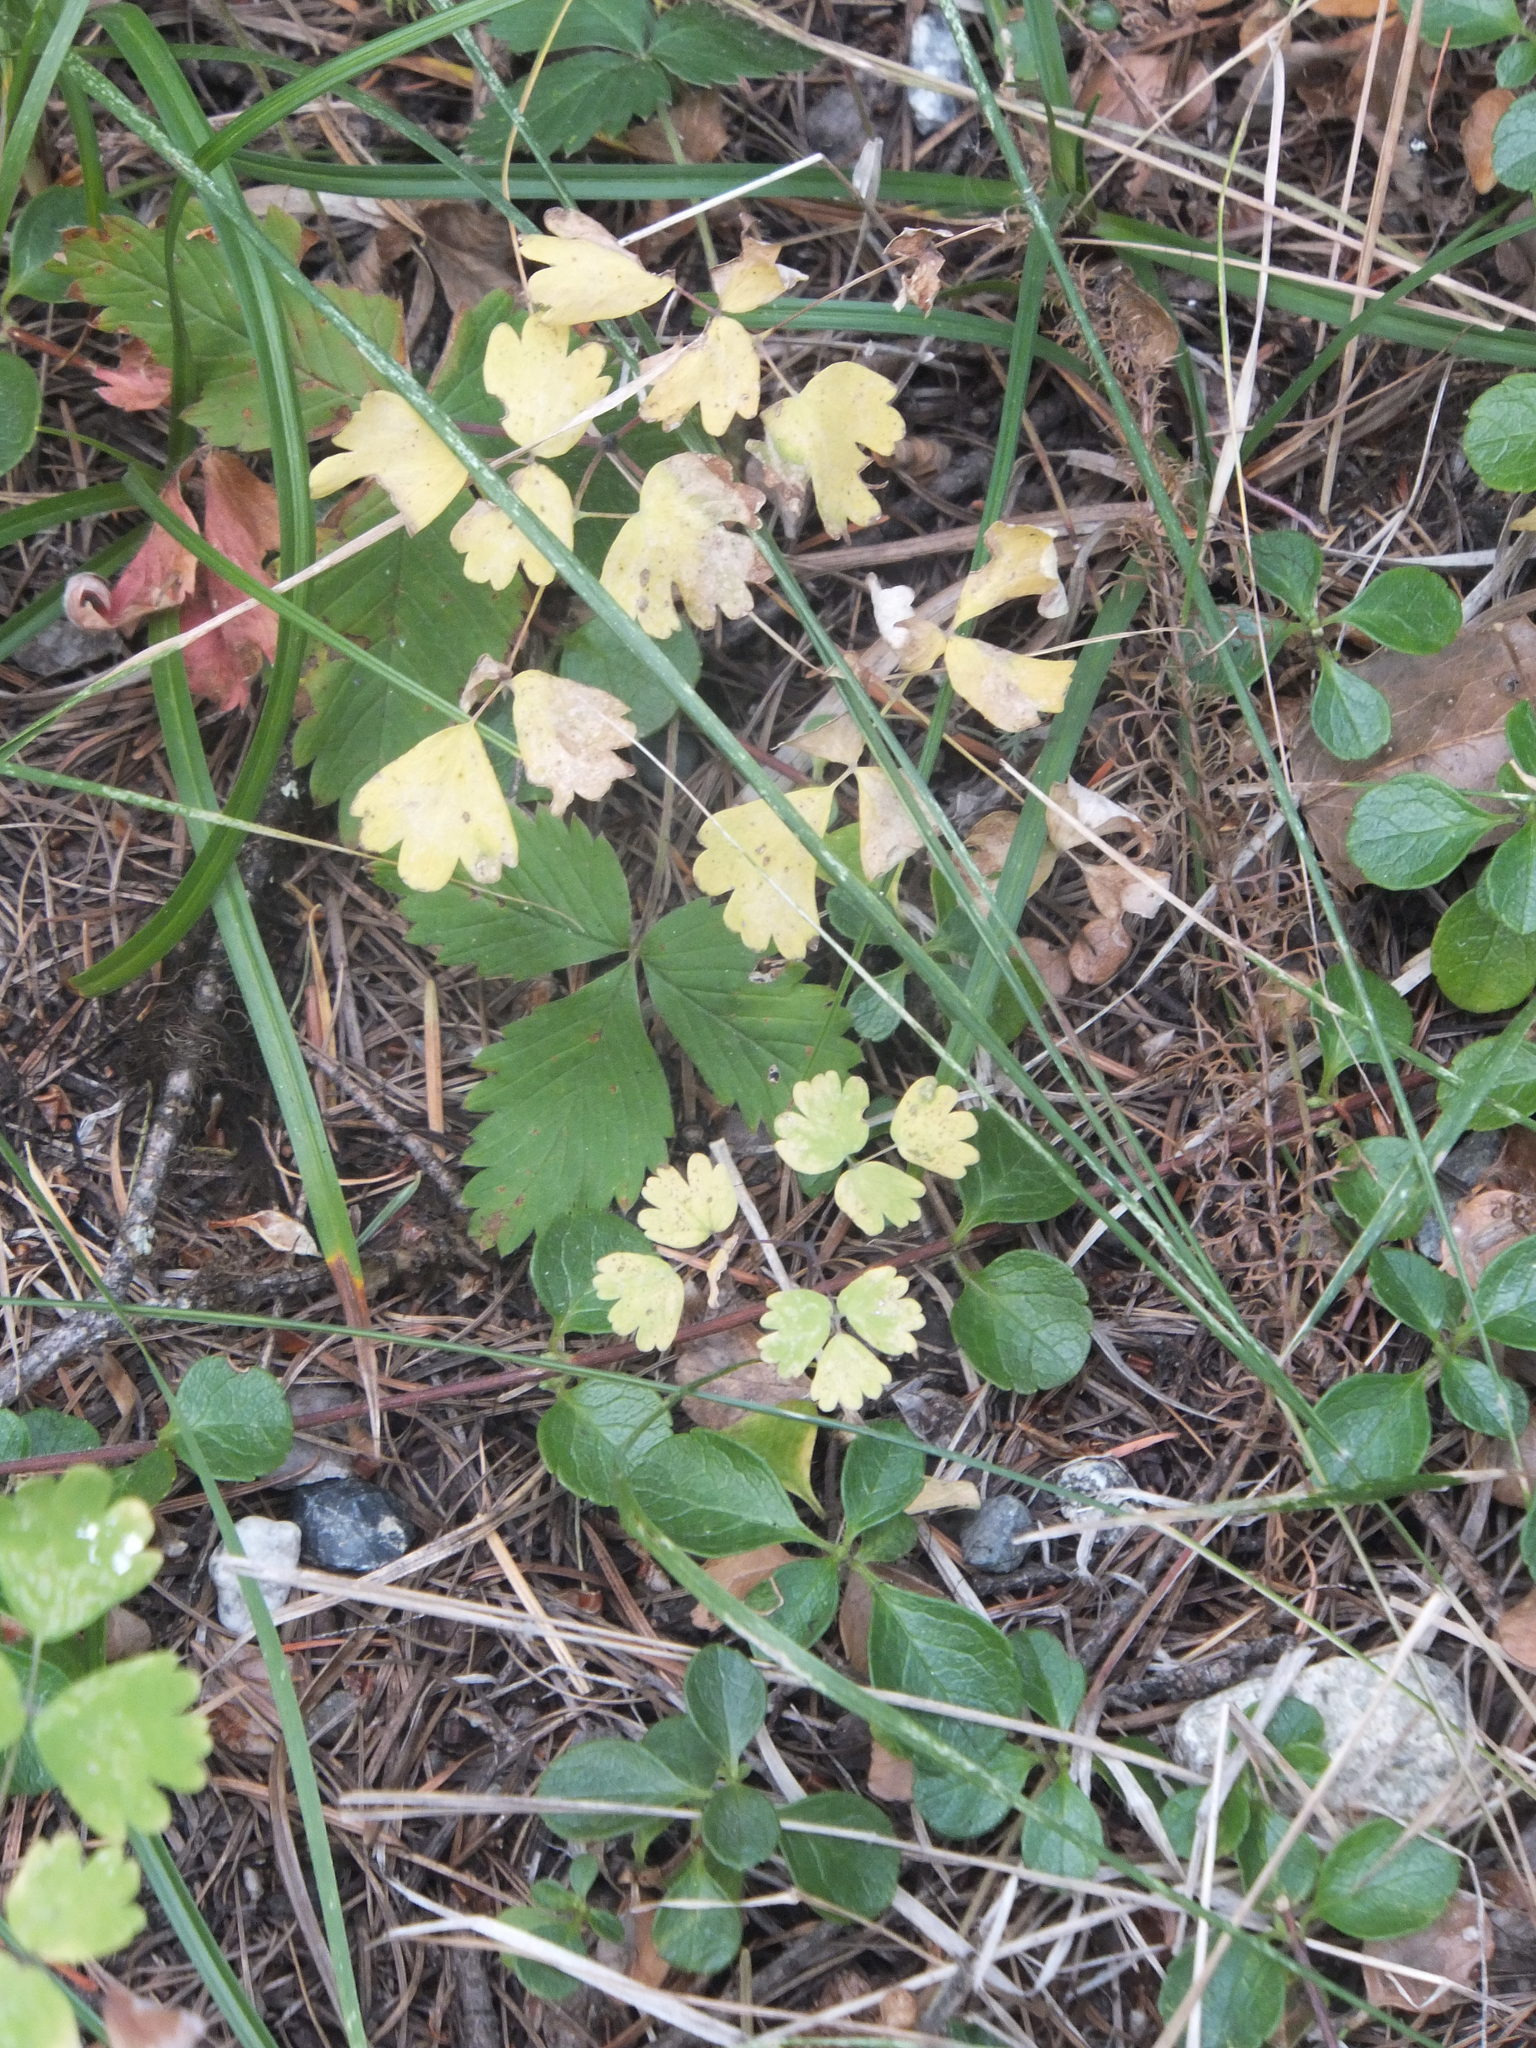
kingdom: Plantae
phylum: Tracheophyta
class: Magnoliopsida
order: Ranunculales
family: Ranunculaceae
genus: Thalictrum
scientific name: Thalictrum occidentale
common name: Western meadow-rue
